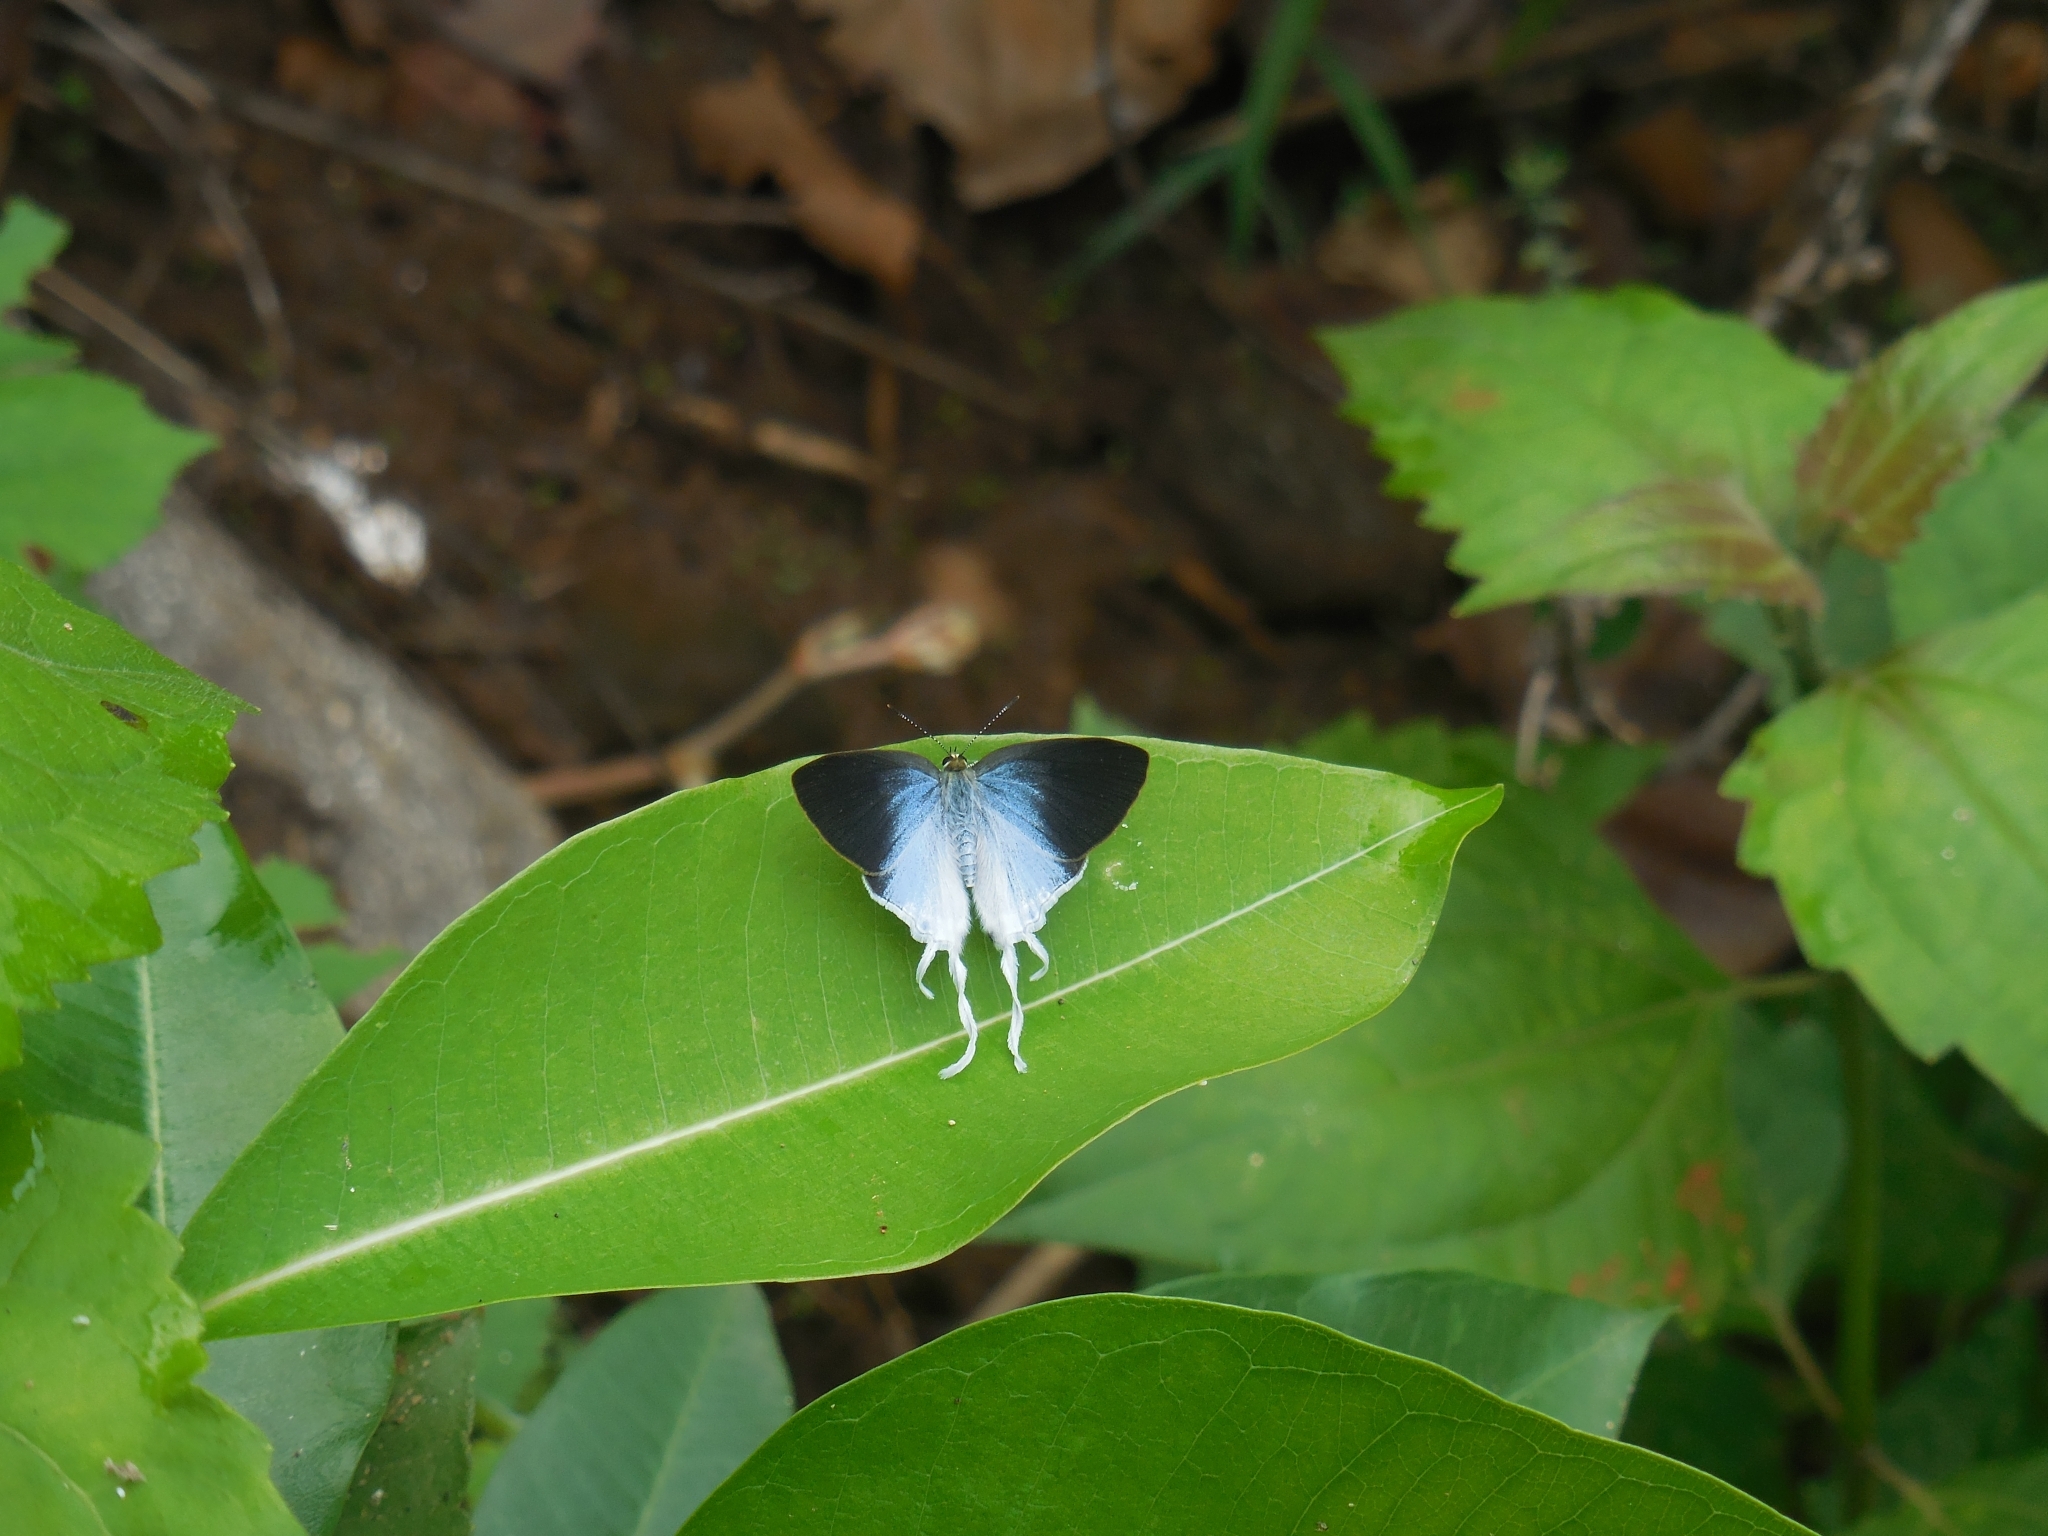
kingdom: Animalia
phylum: Arthropoda
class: Insecta
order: Lepidoptera
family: Lycaenidae
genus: Zeltus
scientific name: Zeltus amasa
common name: Fluffy tit
